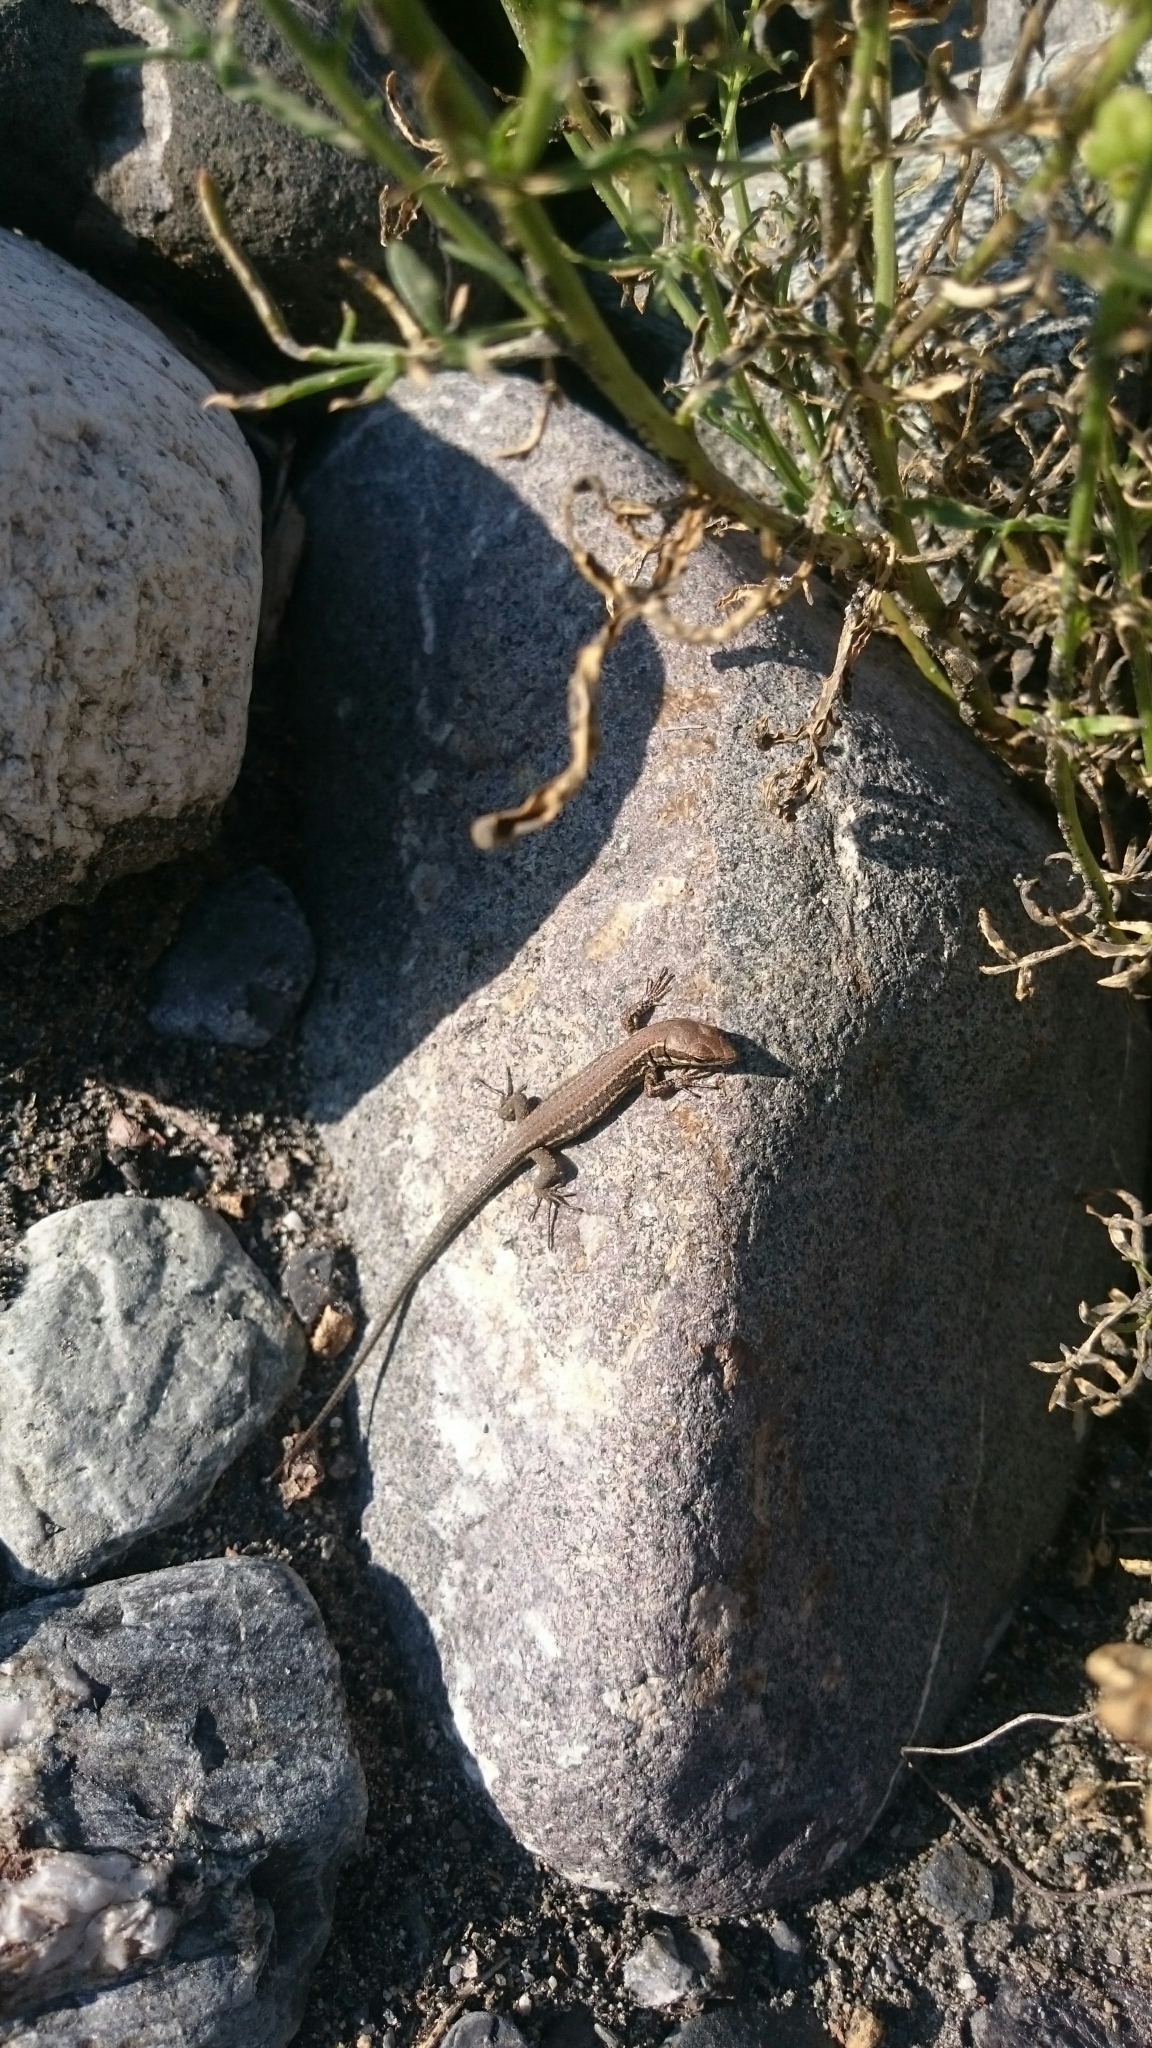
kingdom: Animalia
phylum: Chordata
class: Squamata
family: Lacertidae
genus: Podarcis
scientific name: Podarcis muralis
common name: Common wall lizard
